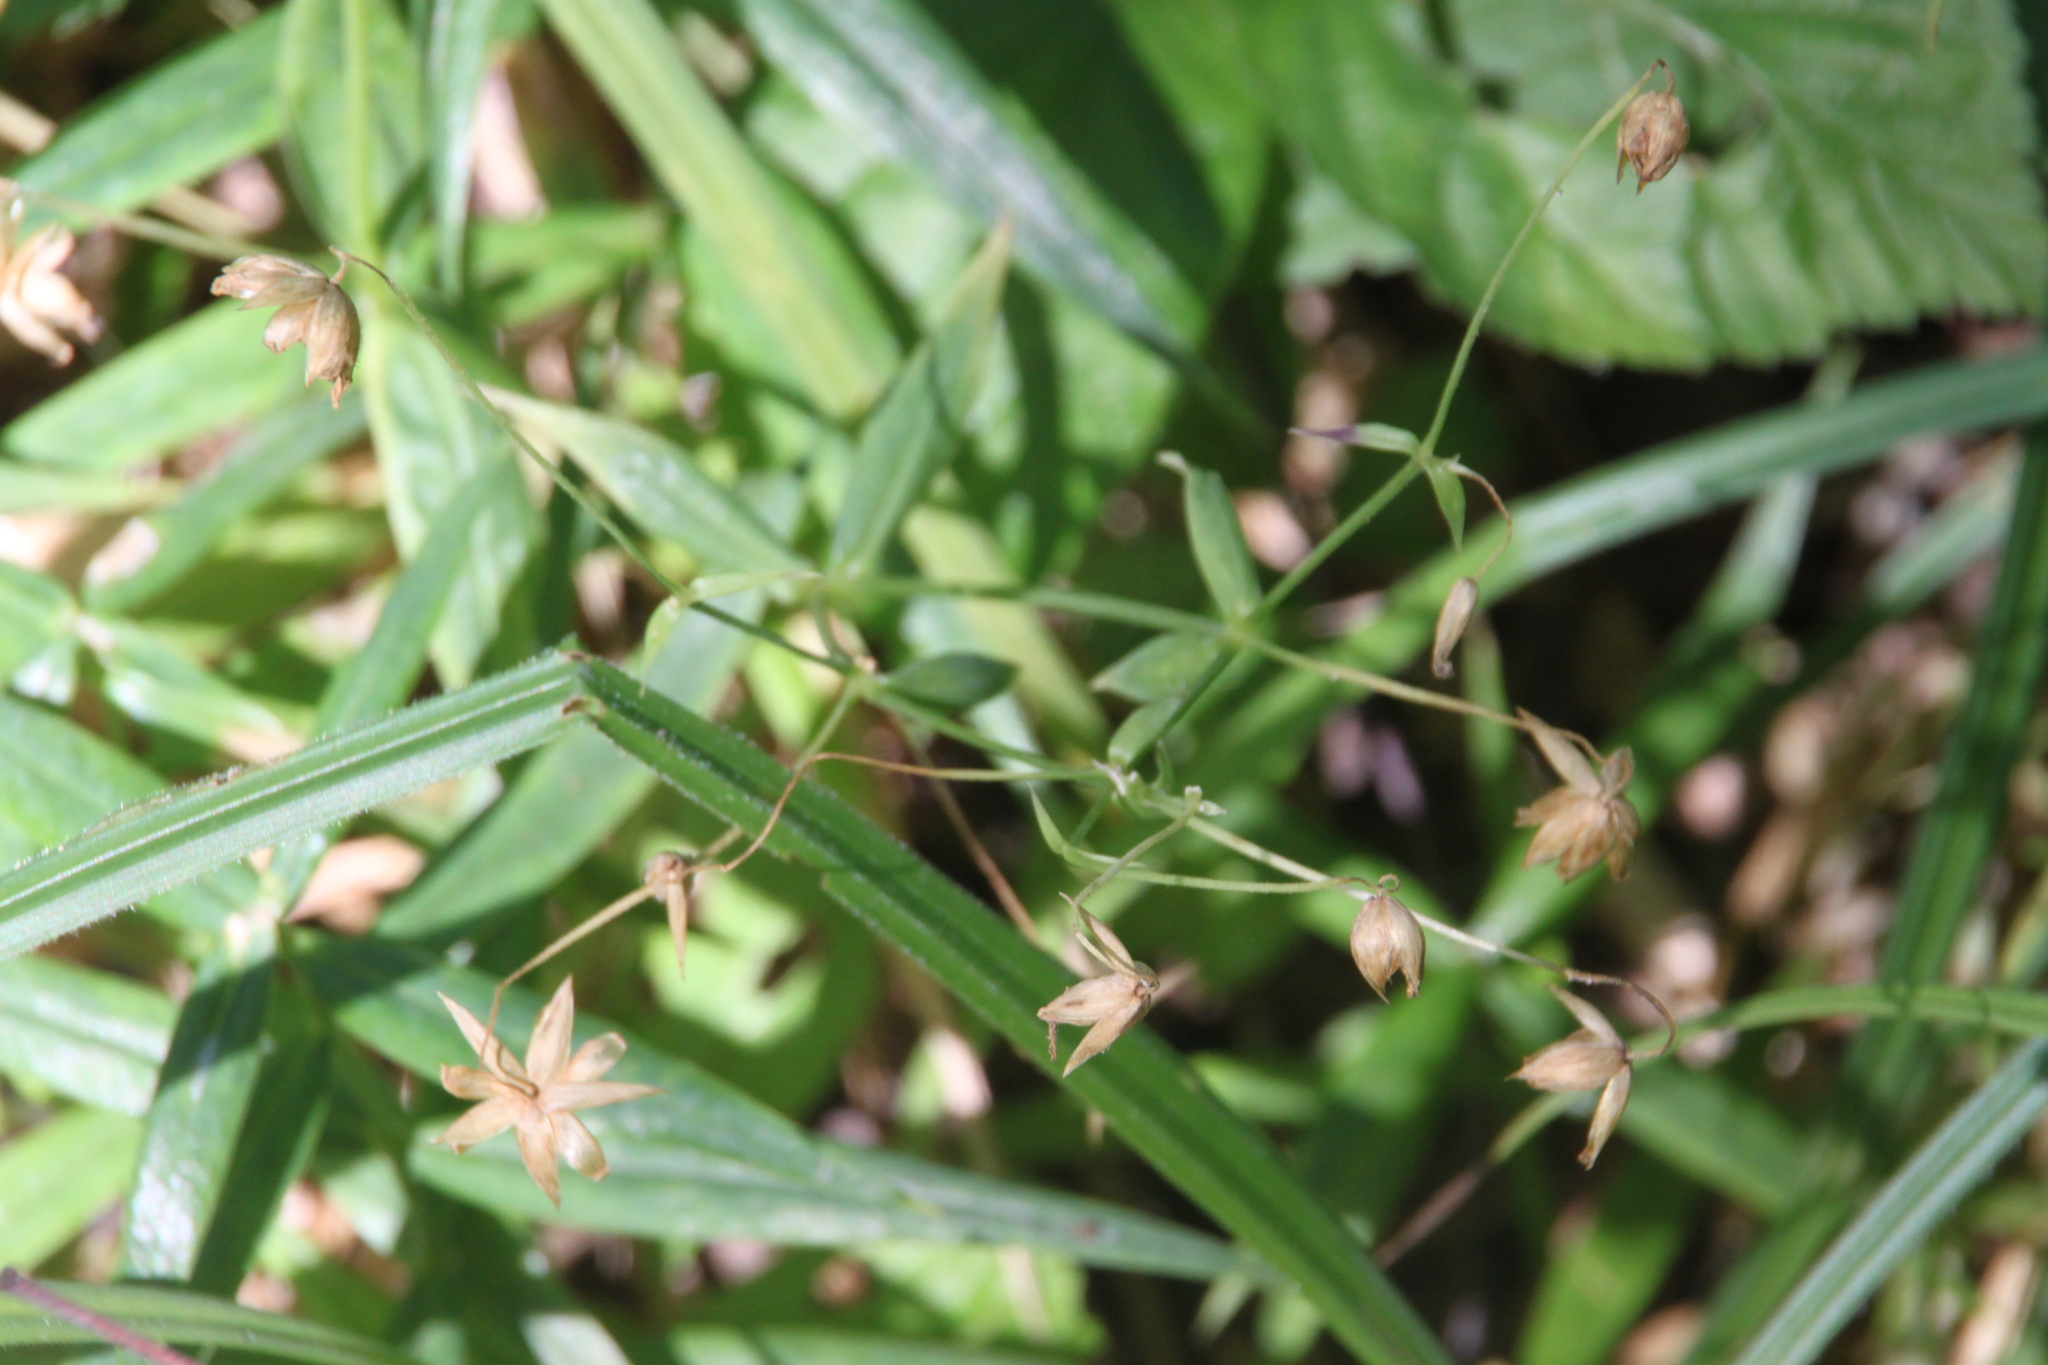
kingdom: Plantae
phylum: Tracheophyta
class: Magnoliopsida
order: Caryophyllales
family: Caryophyllaceae
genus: Rabelera
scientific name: Rabelera holostea
